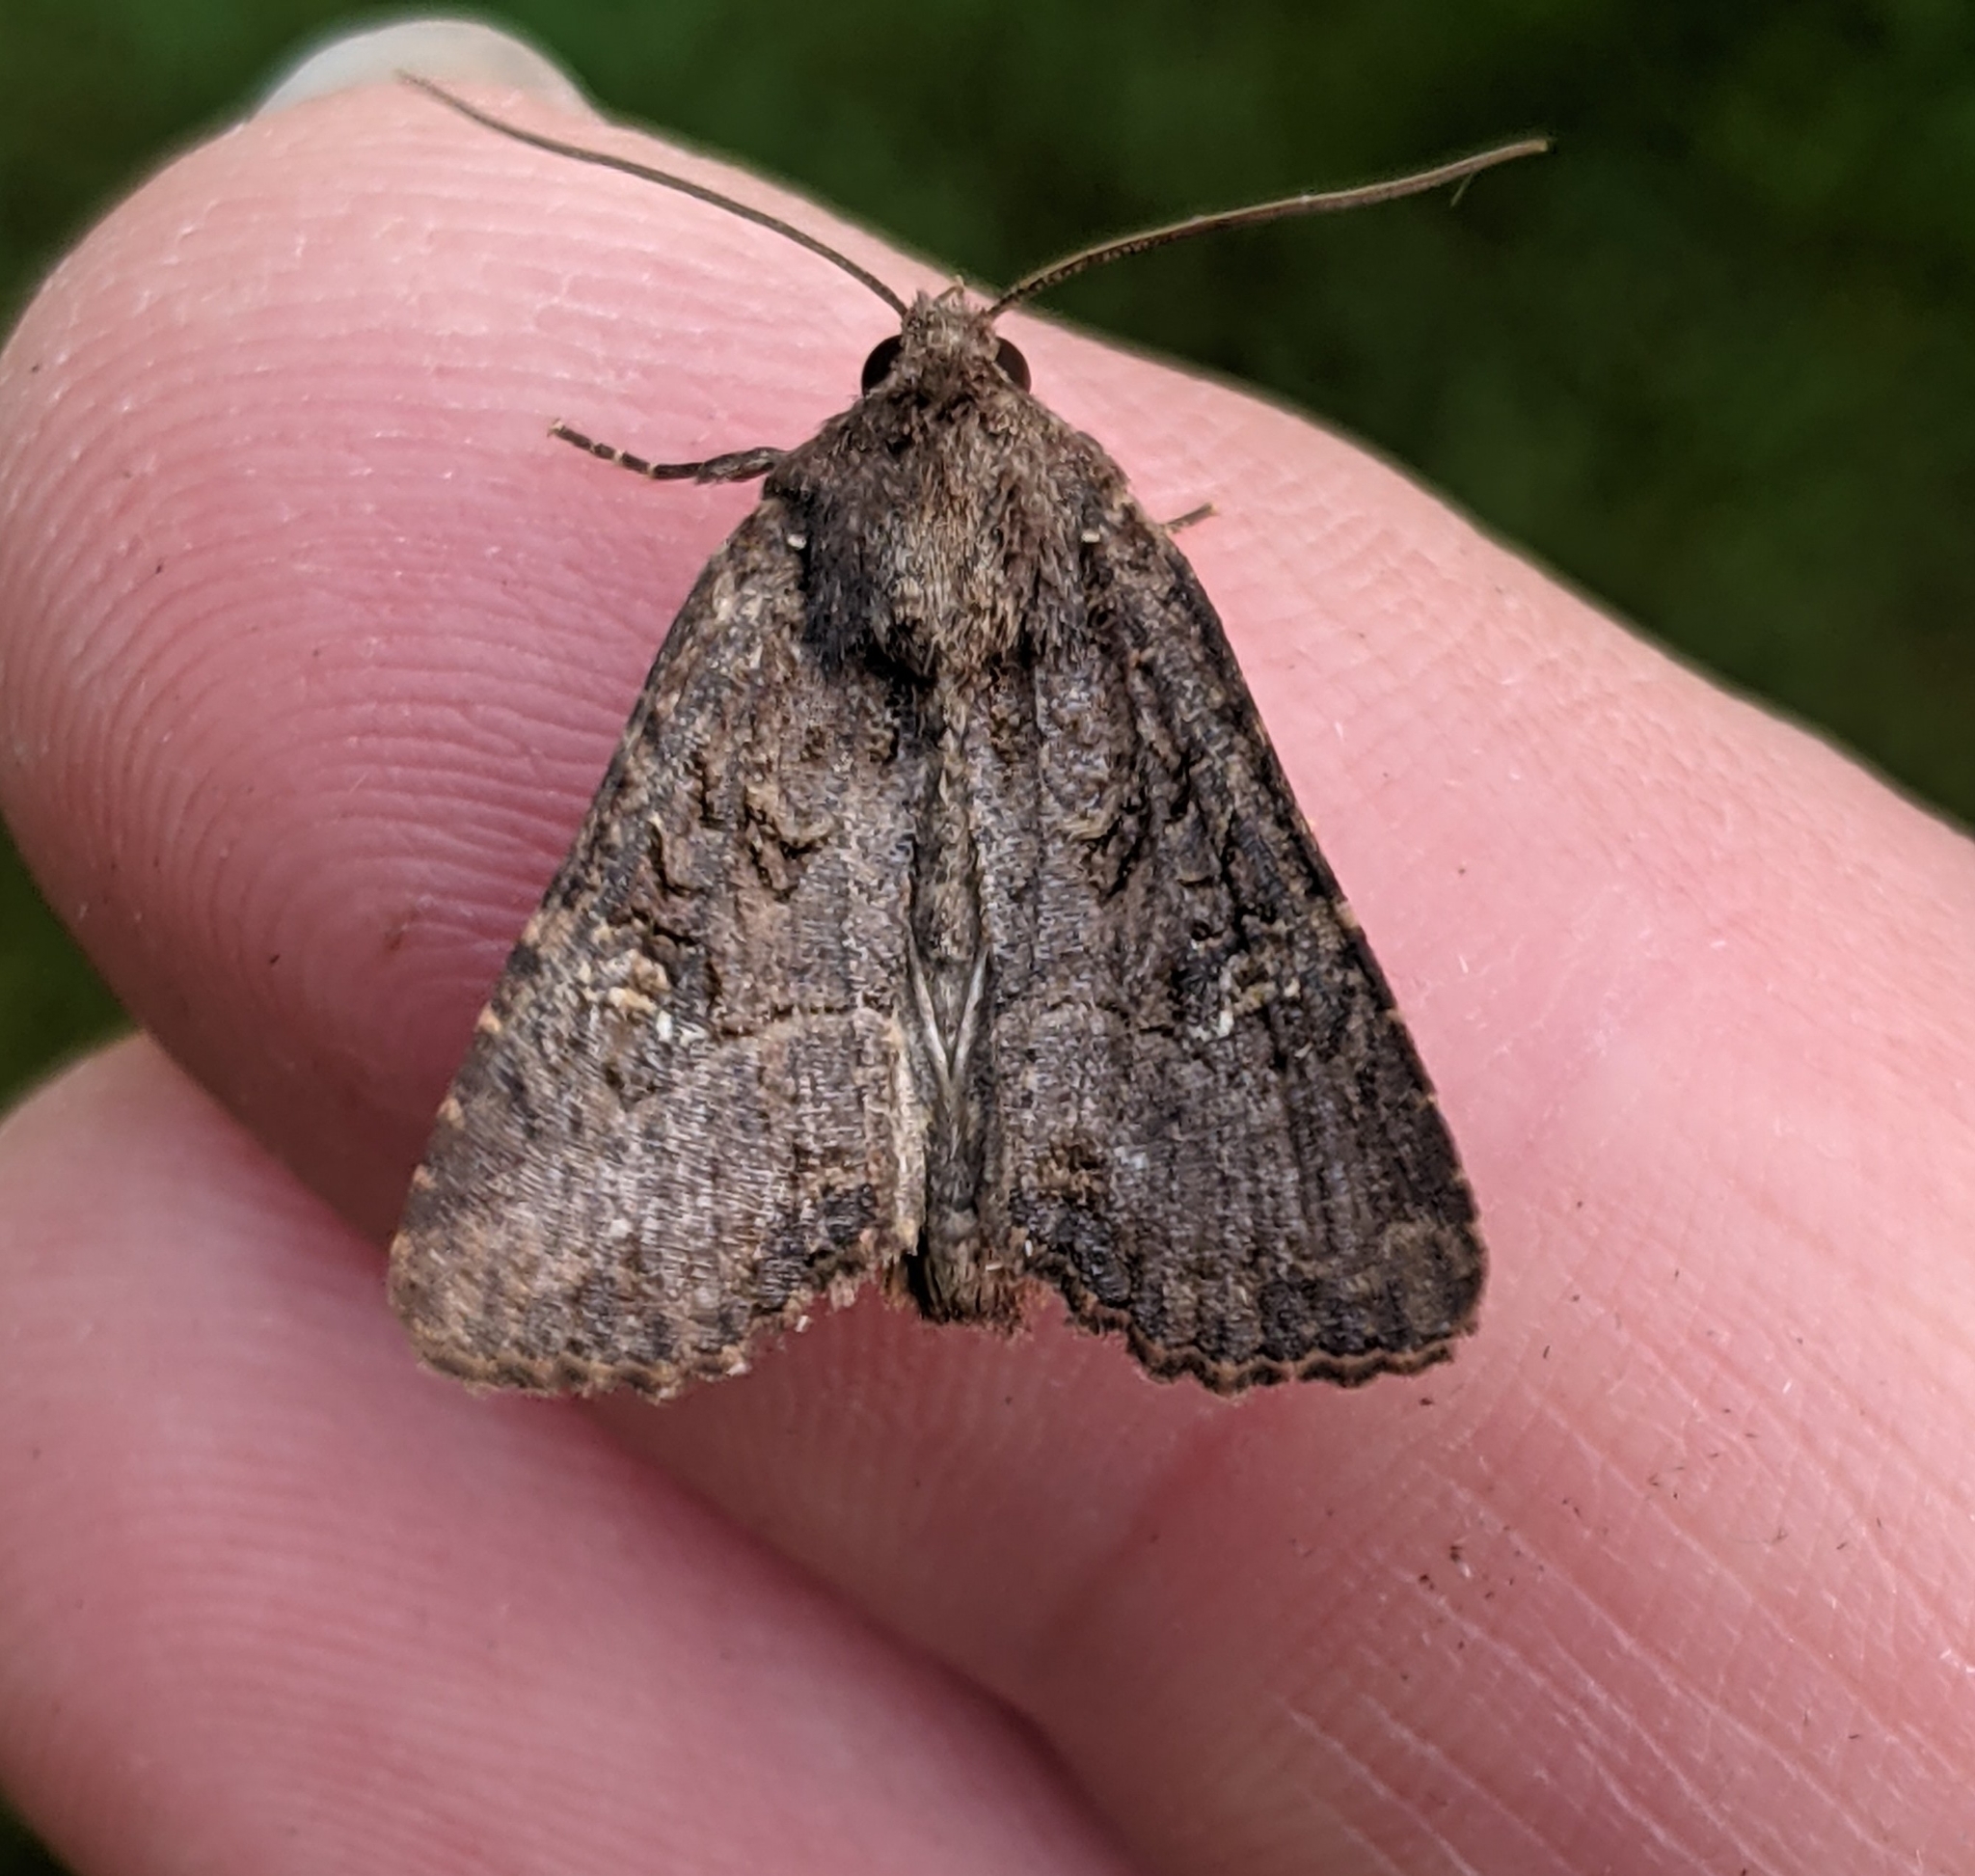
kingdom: Animalia
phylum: Arthropoda
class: Insecta
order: Lepidoptera
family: Noctuidae
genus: Mesapamea
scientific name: Mesapamea secalis
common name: Common rustic
